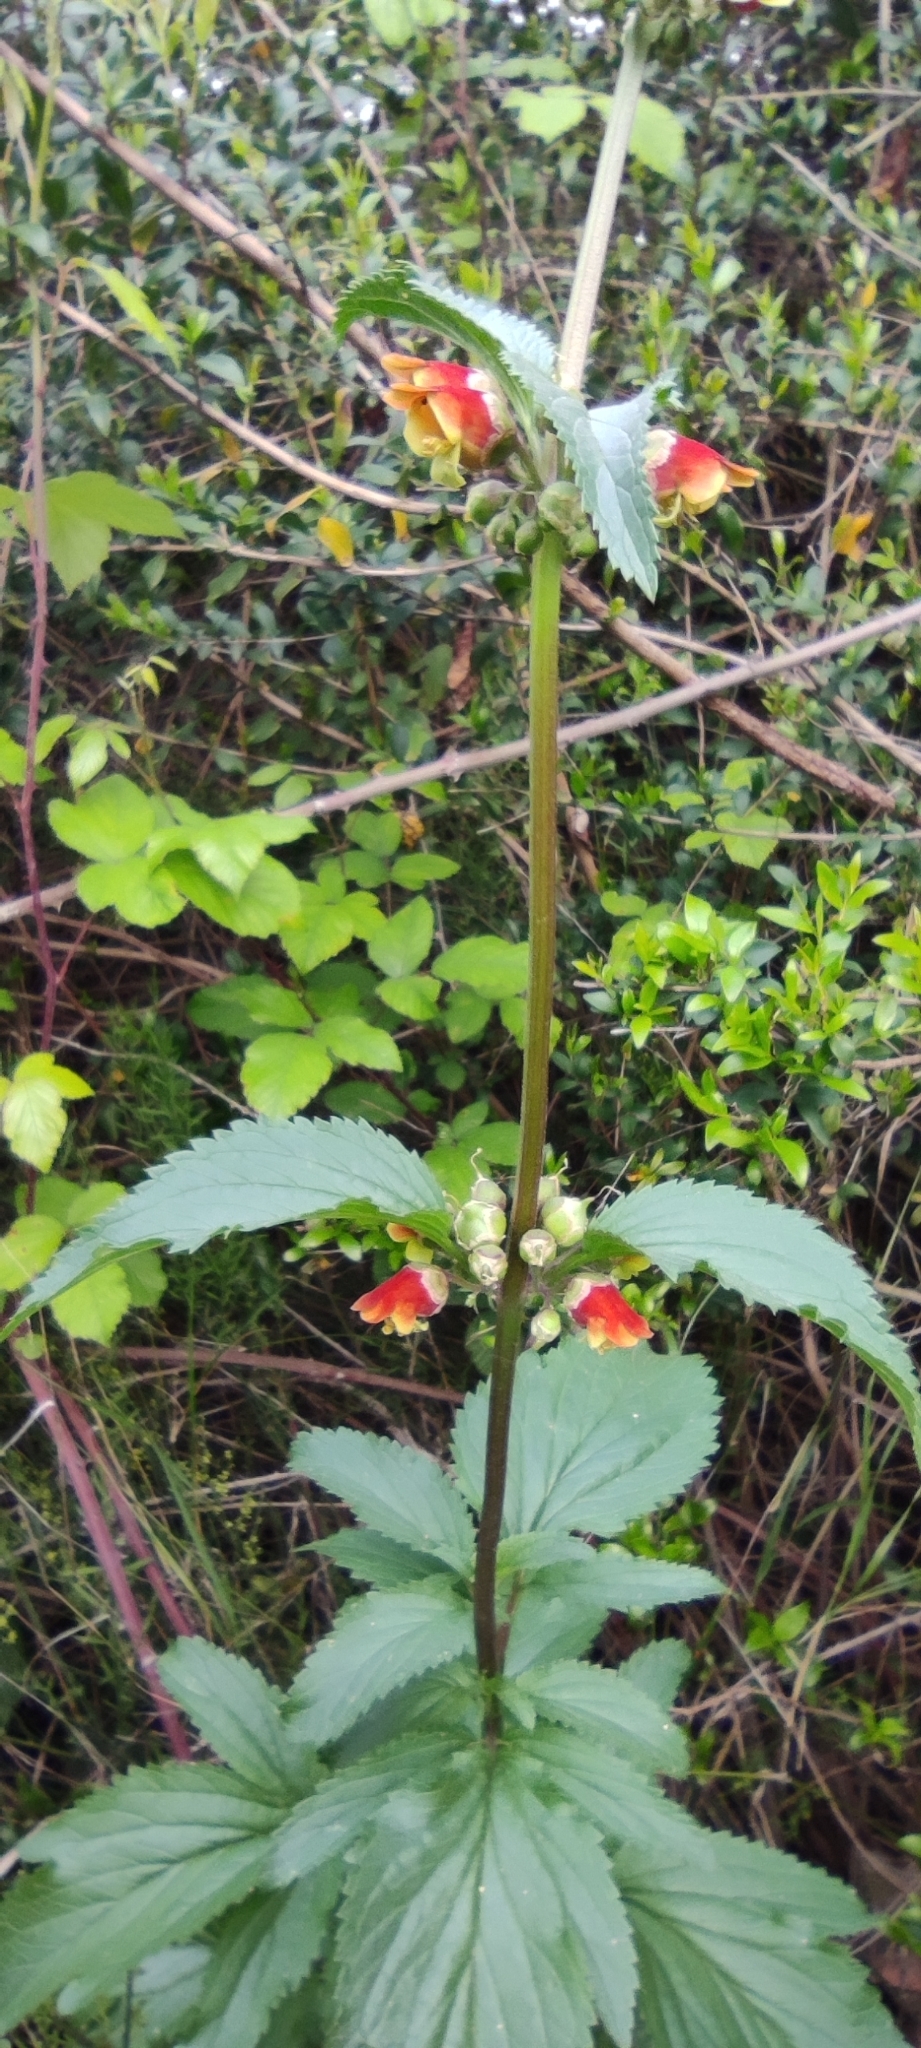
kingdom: Plantae
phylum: Tracheophyta
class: Magnoliopsida
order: Lamiales
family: Scrophulariaceae
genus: Scrophularia
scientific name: Scrophularia sambucifolia
